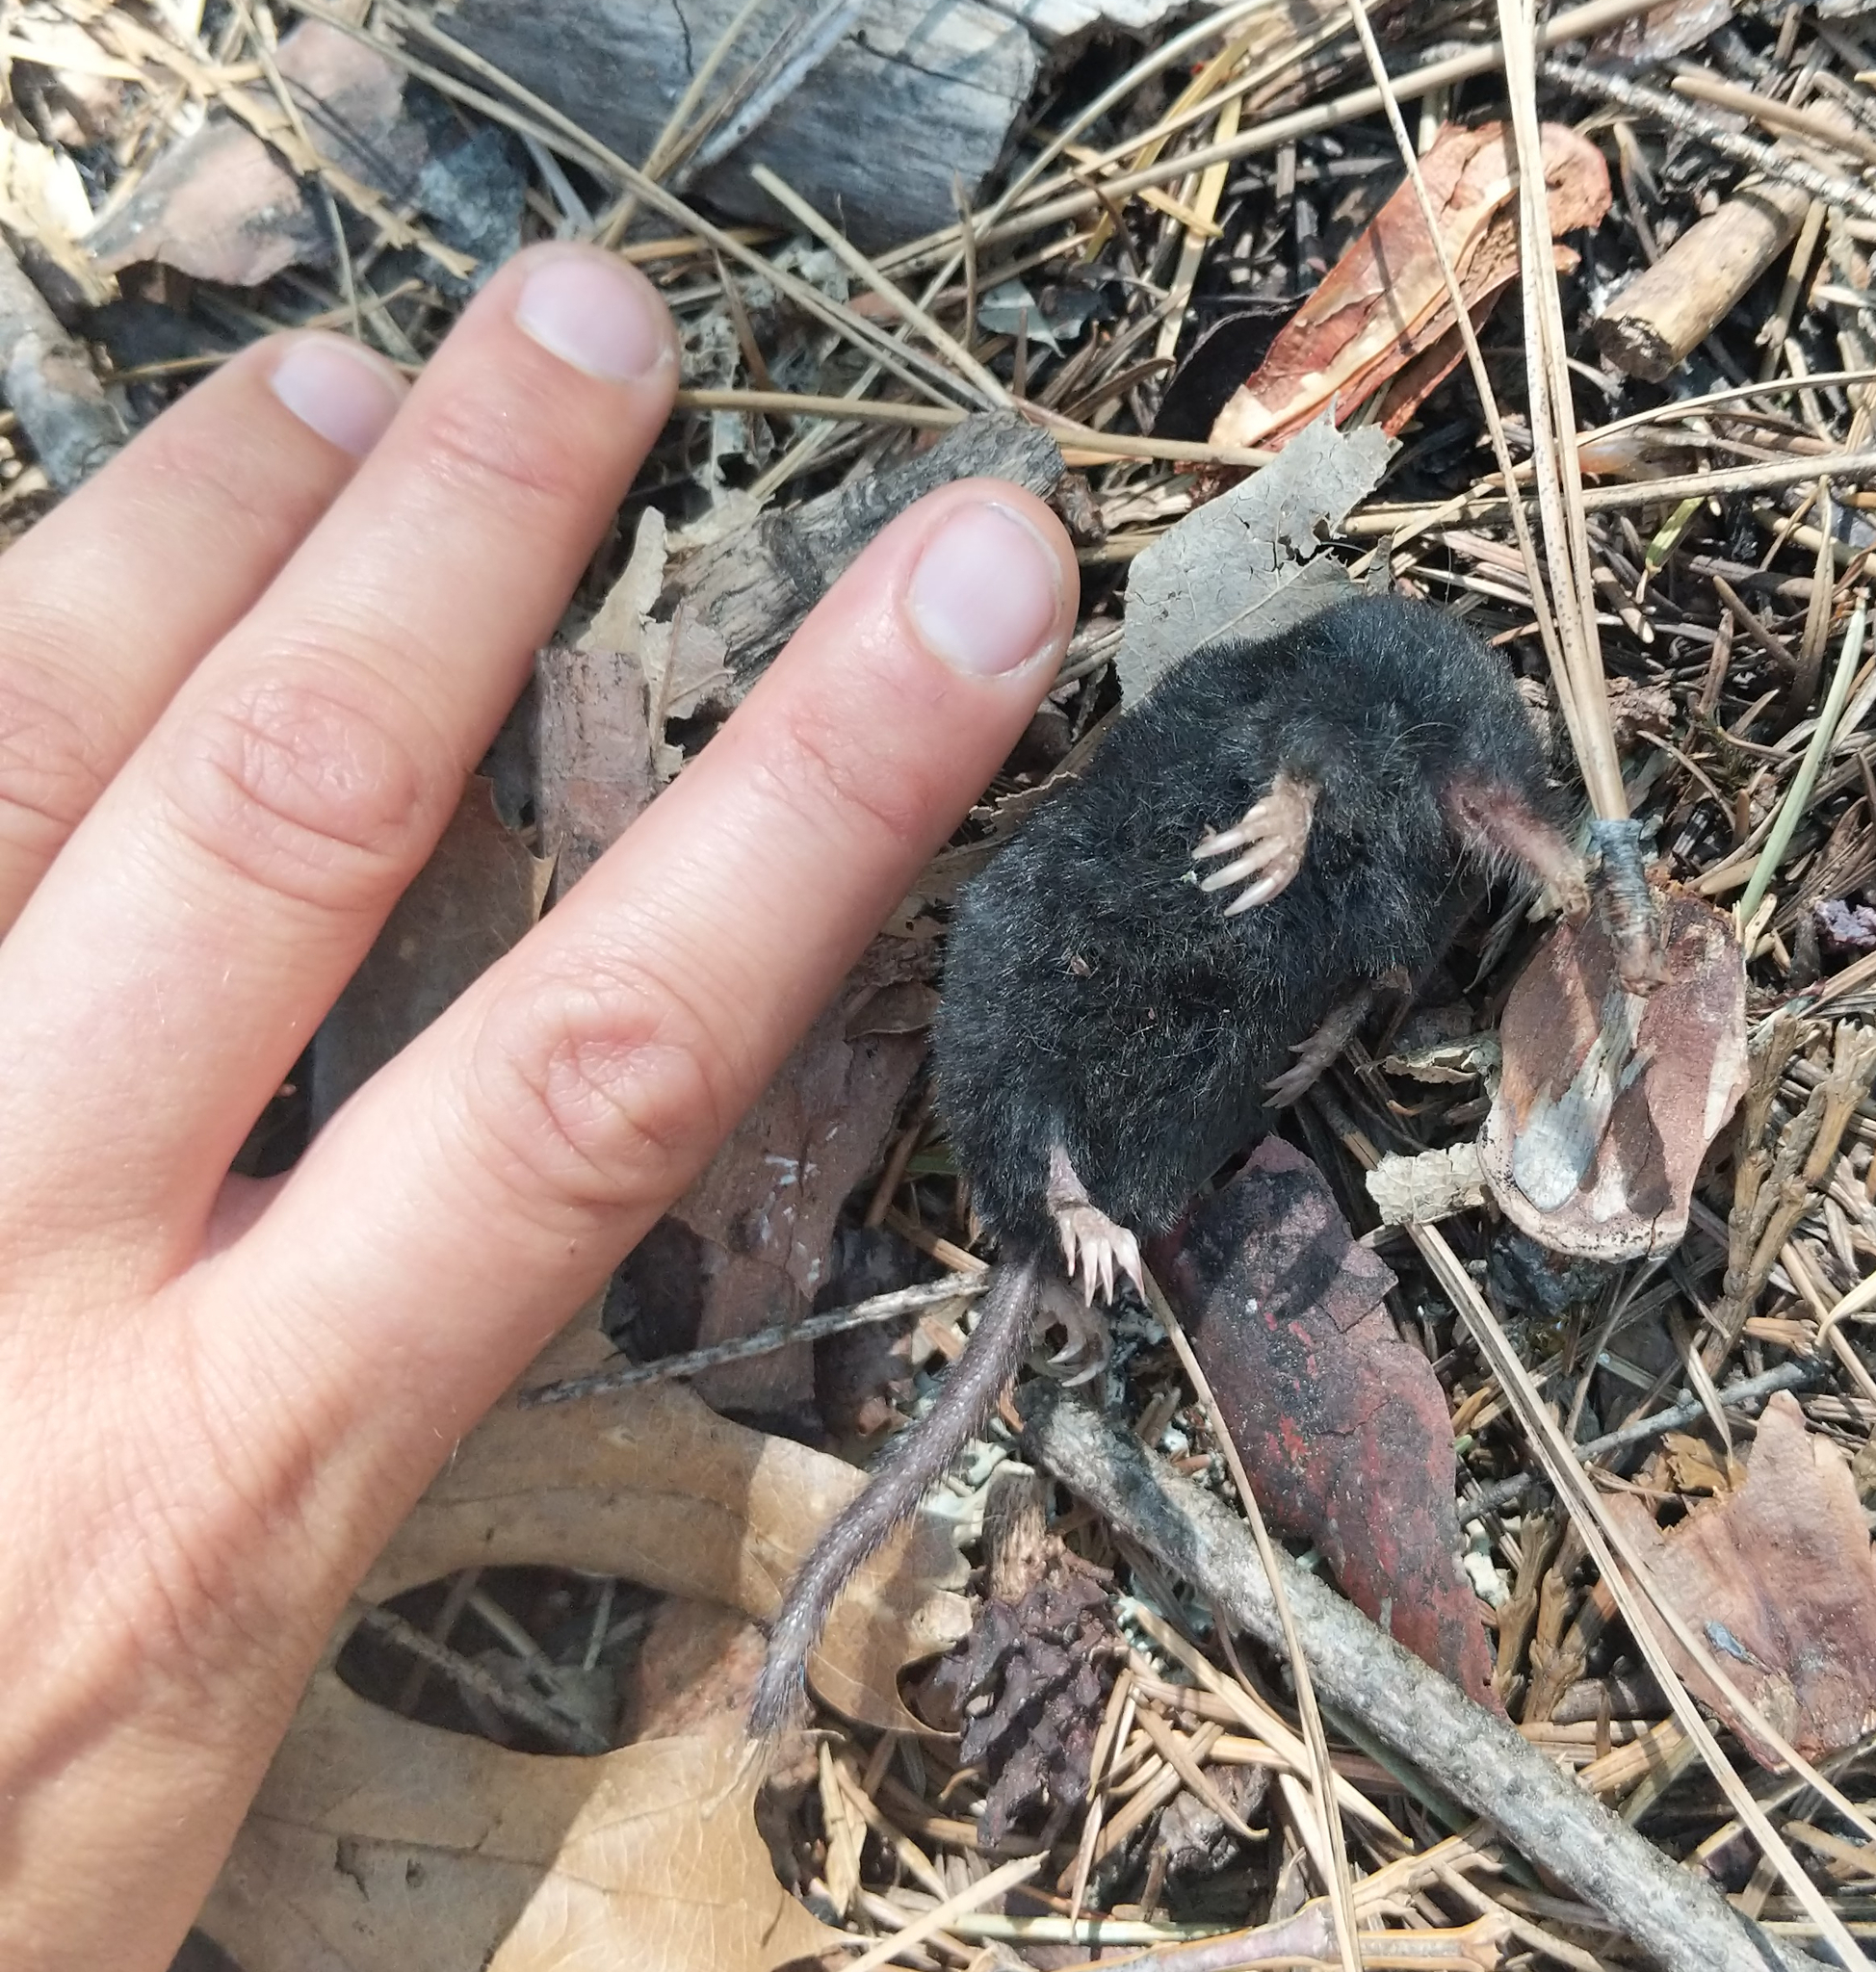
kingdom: Animalia
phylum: Chordata
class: Mammalia
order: Soricomorpha
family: Talpidae
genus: Neurotrichus
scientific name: Neurotrichus gibbsii
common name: American shrew mole
